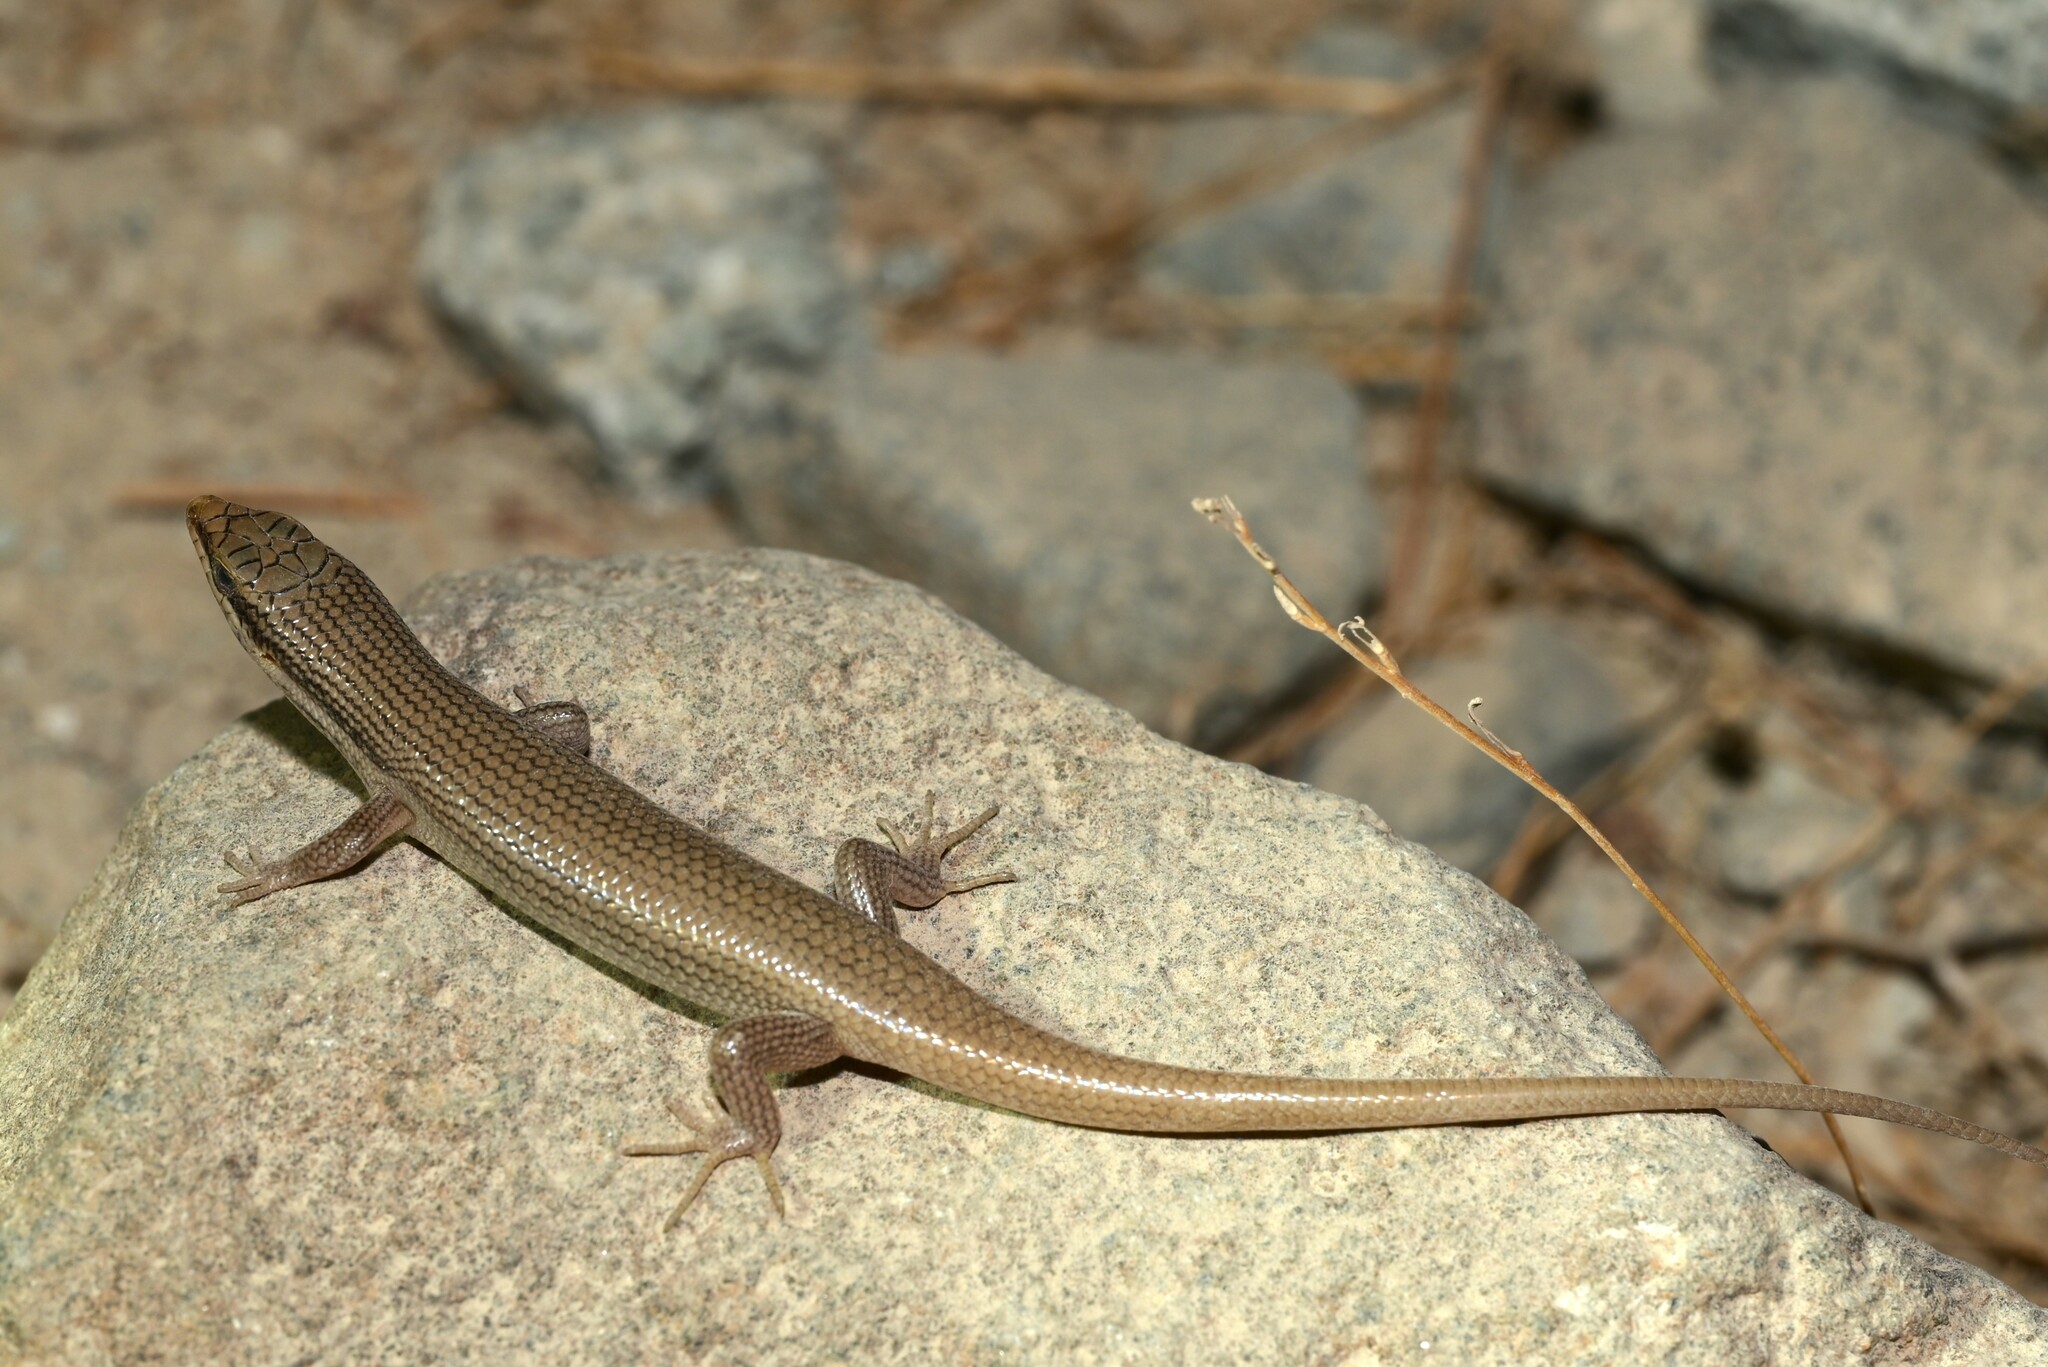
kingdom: Animalia
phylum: Chordata
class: Squamata
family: Scincidae
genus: Trachylepis
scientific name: Trachylepis tessellata
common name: Tessellated mabuya
